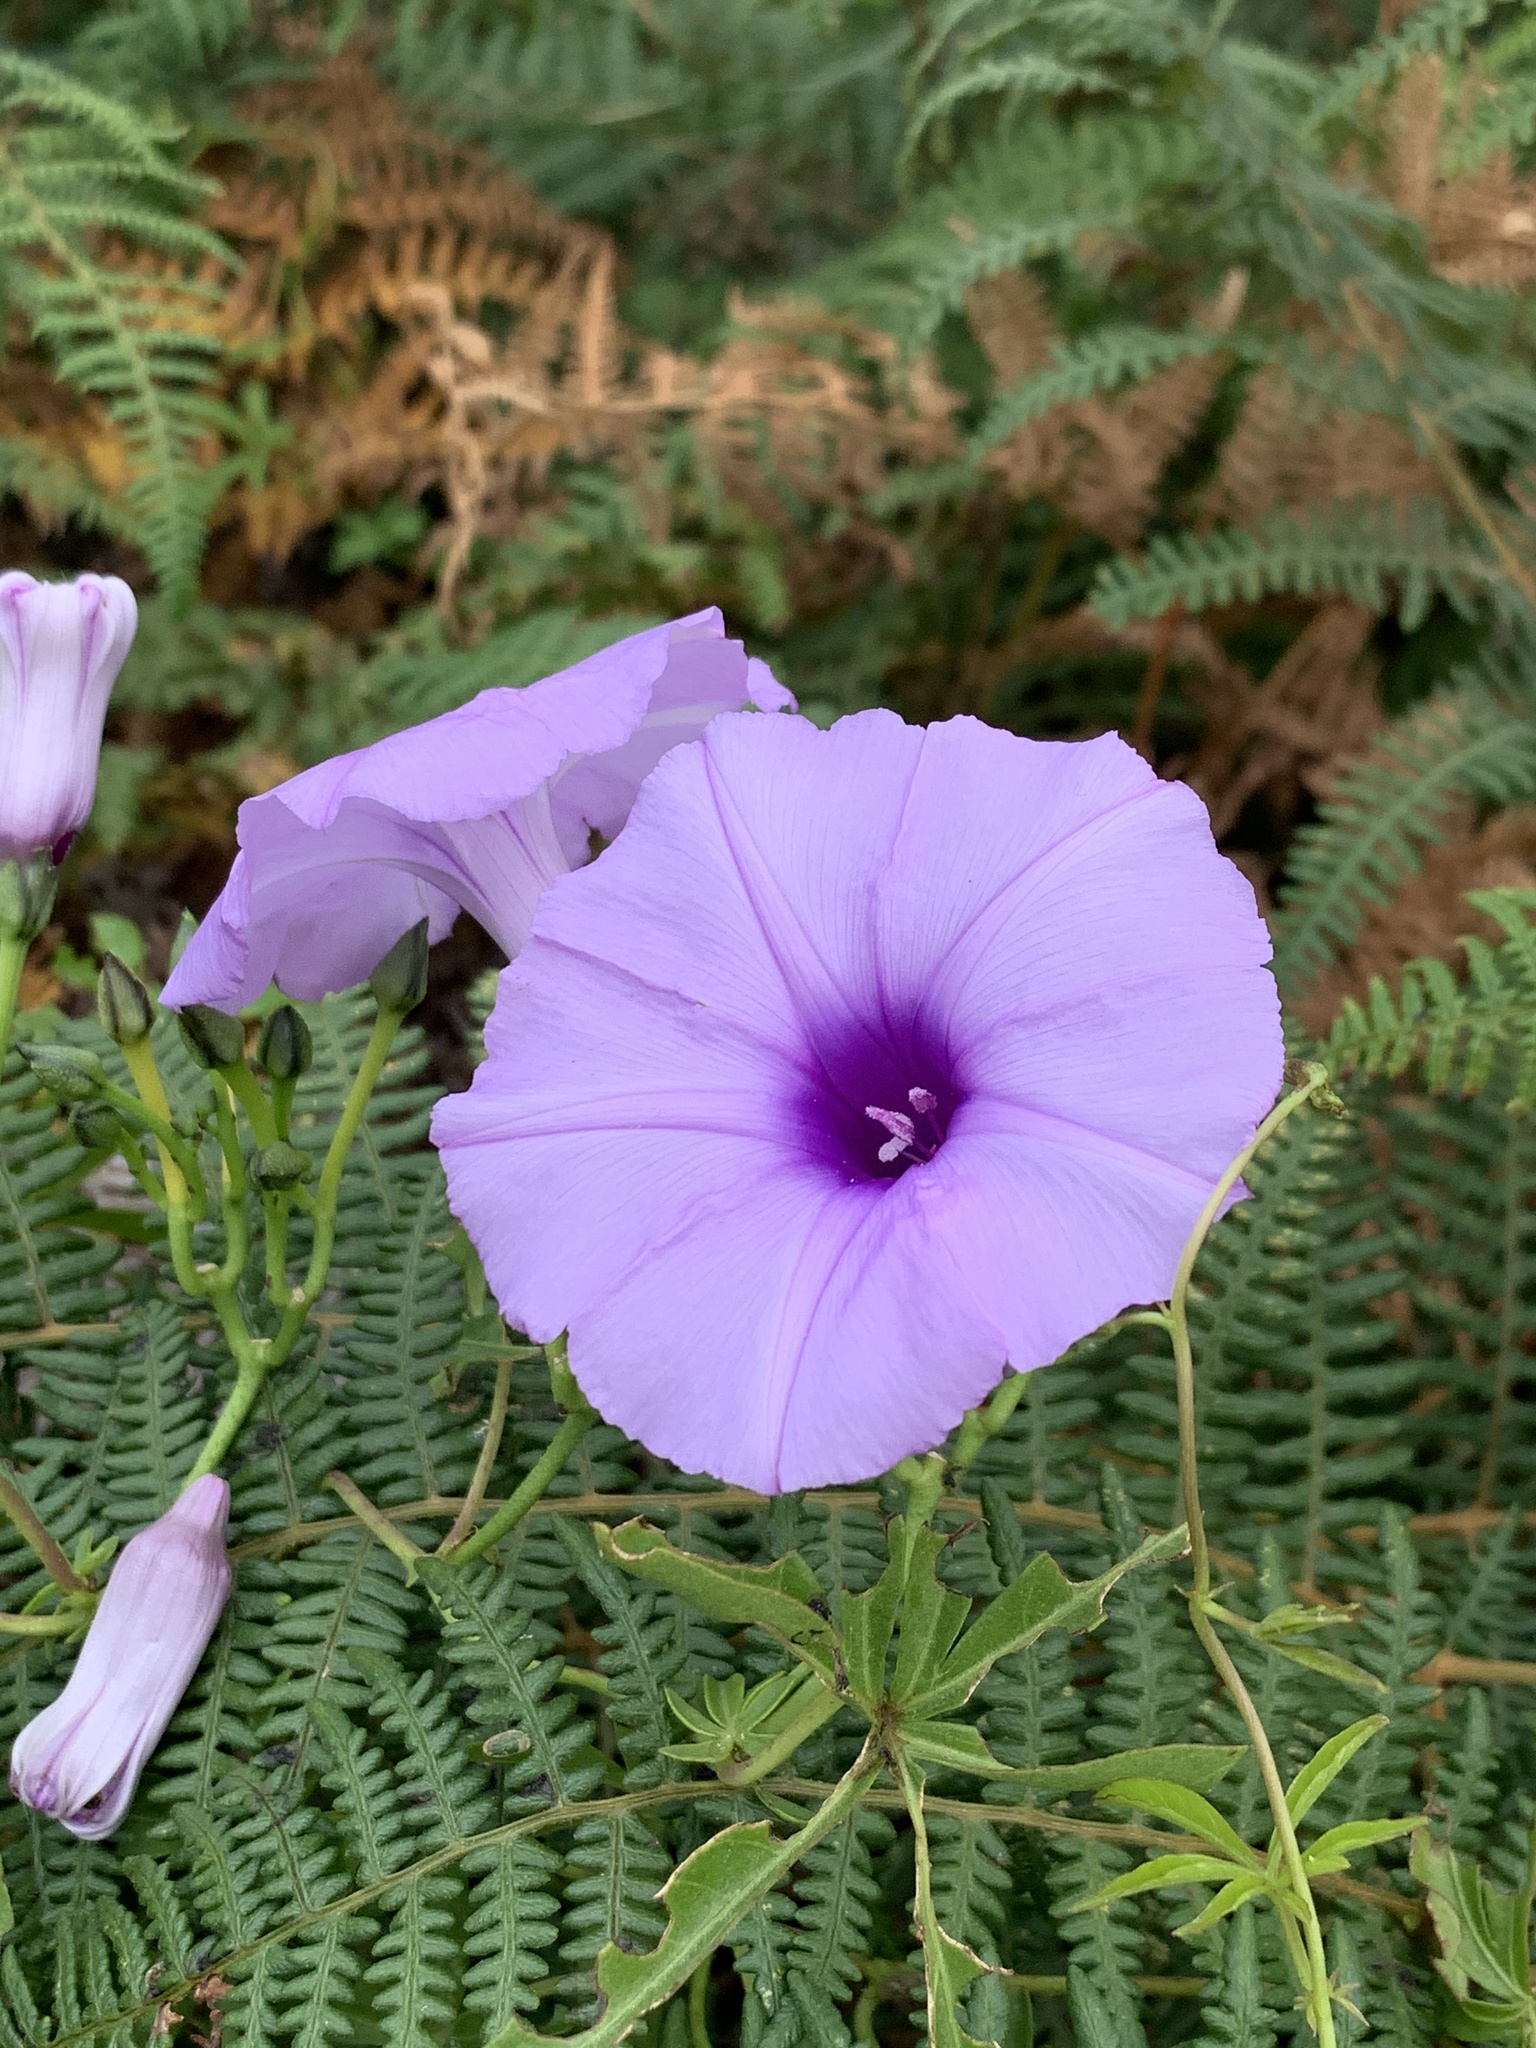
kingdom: Plantae
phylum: Tracheophyta
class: Magnoliopsida
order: Solanales
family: Convolvulaceae
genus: Ipomoea
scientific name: Ipomoea cairica
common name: Mile a minute vine
